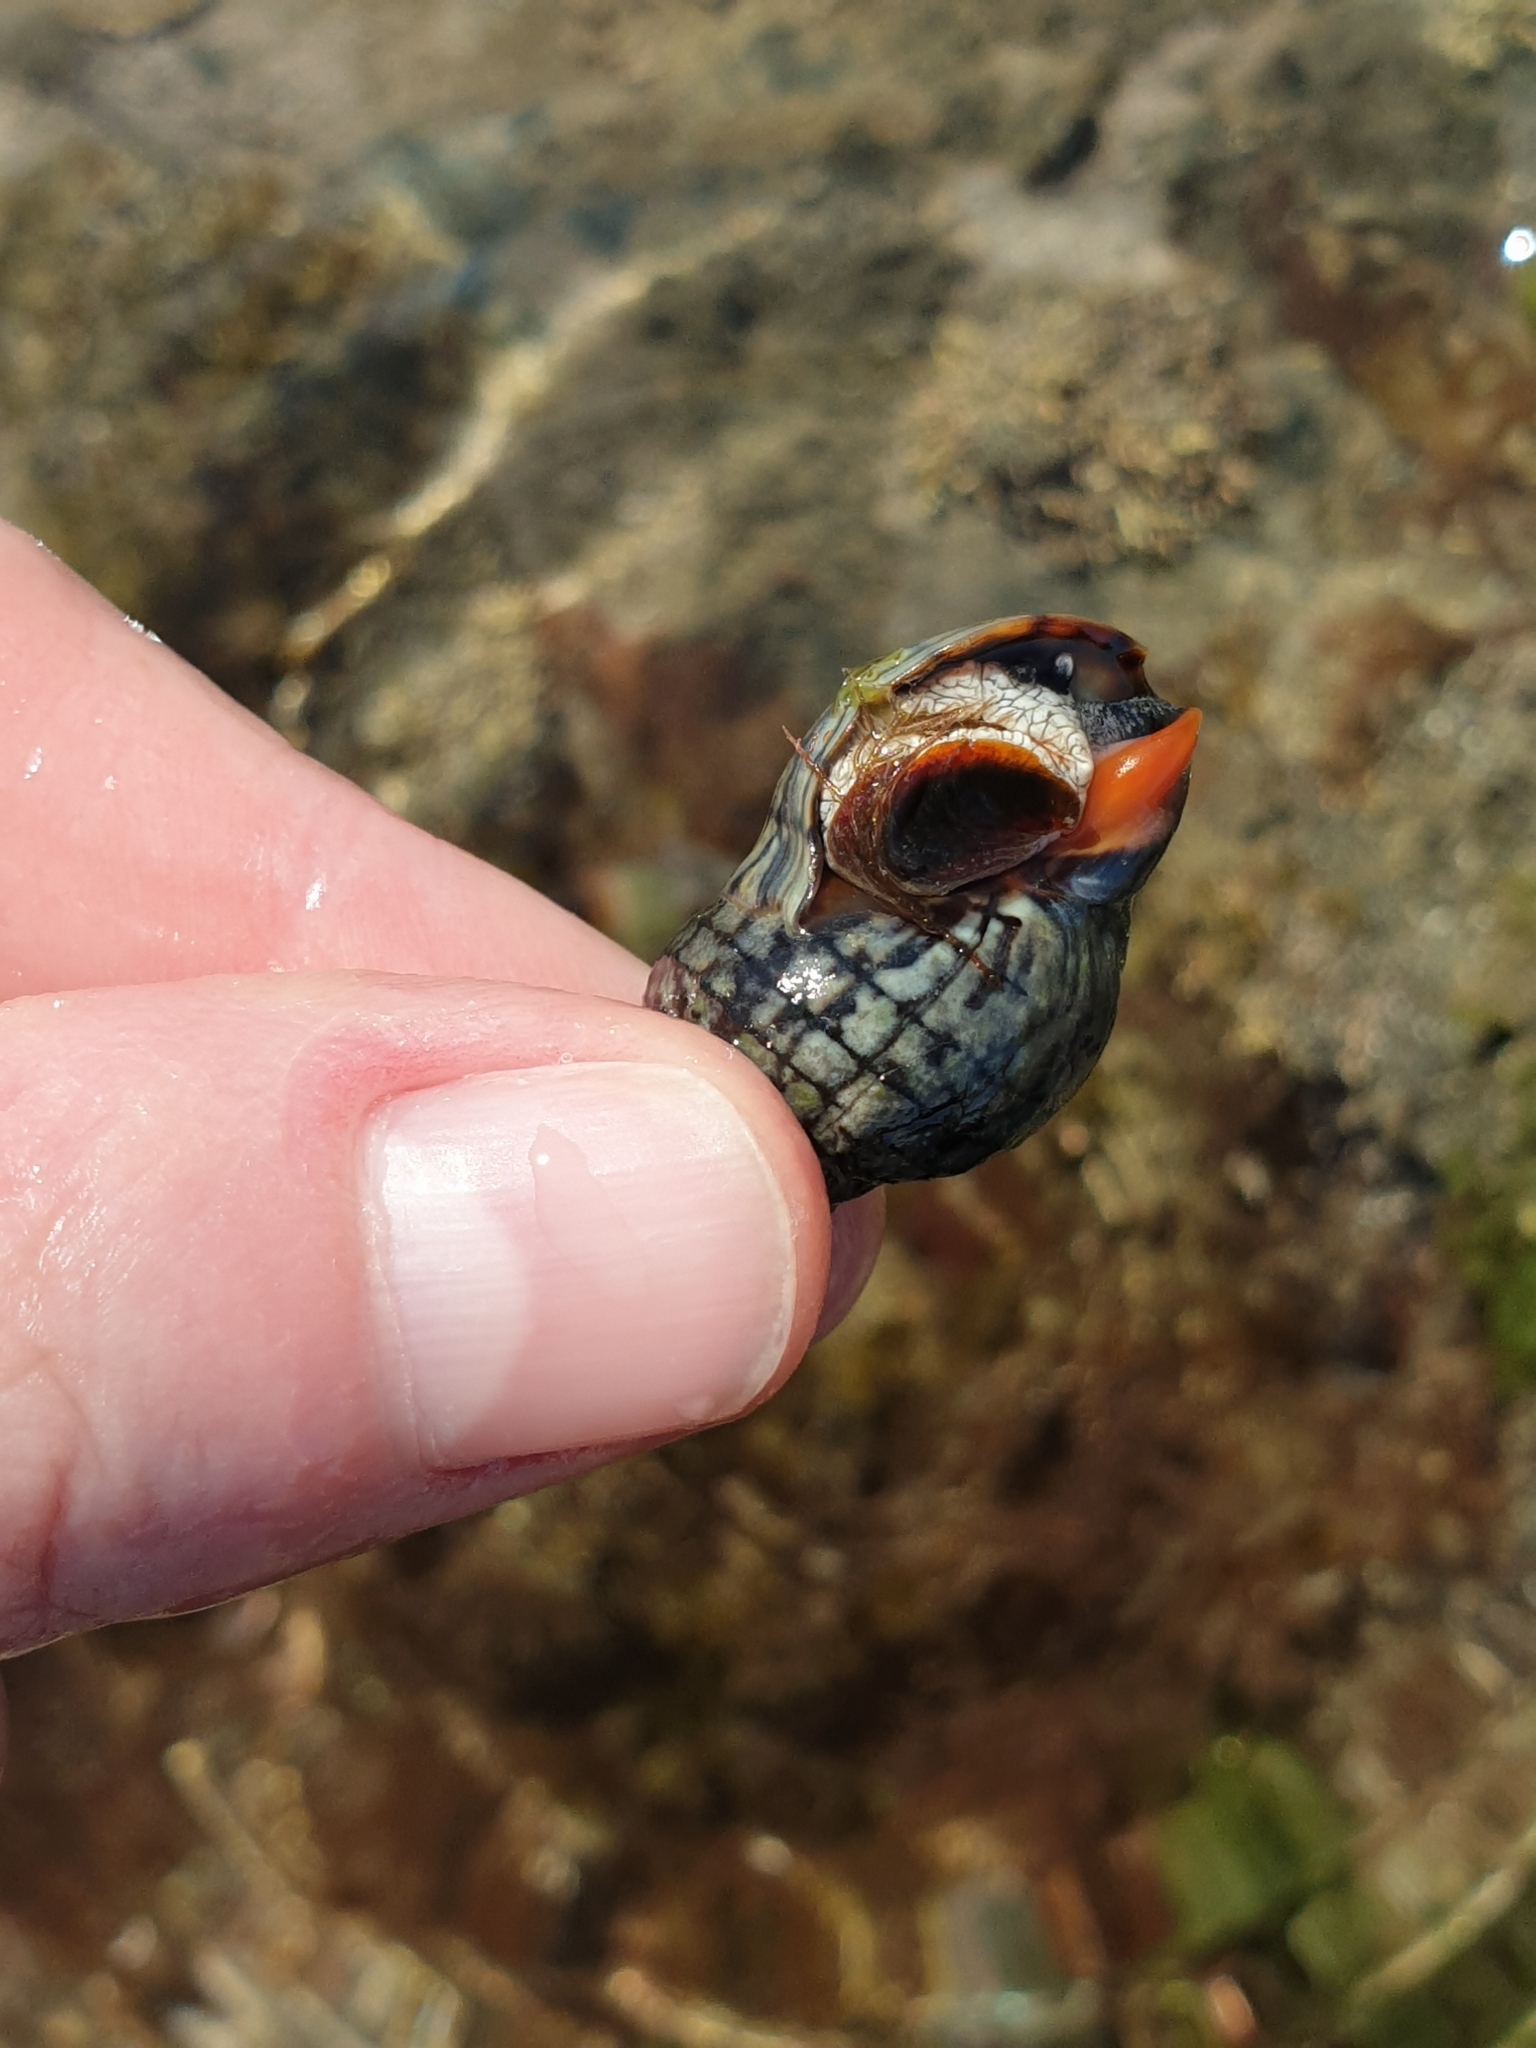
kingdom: Animalia
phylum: Mollusca
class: Gastropoda
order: Neogastropoda
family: Cominellidae
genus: Cominella
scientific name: Cominella virgata
